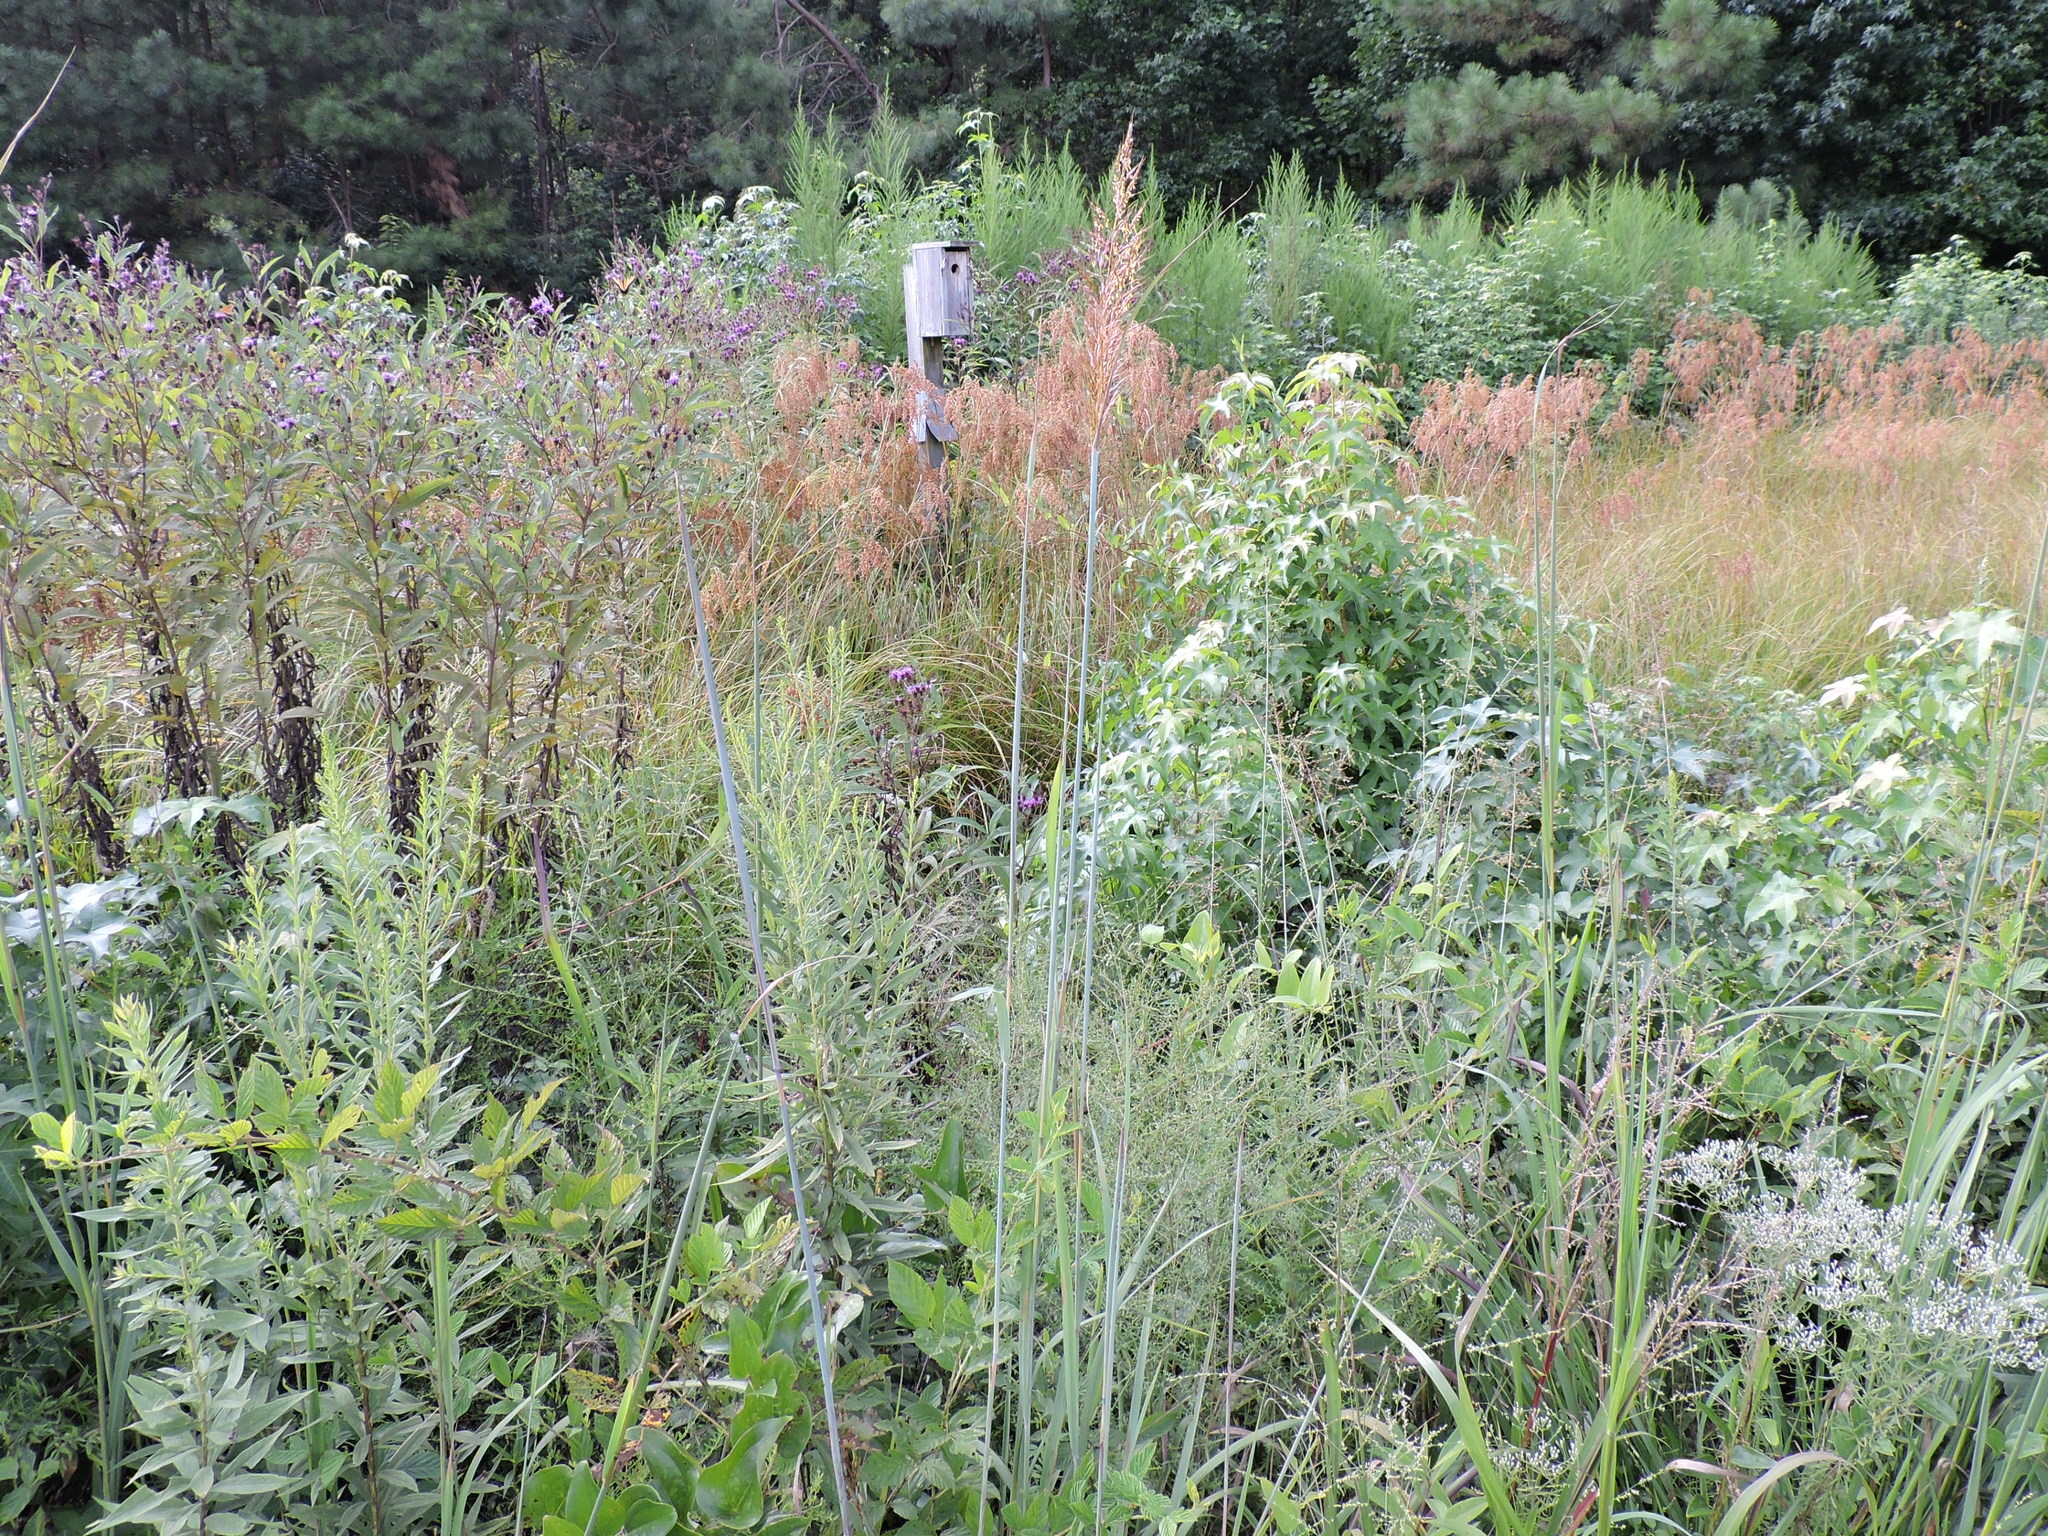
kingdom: Plantae
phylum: Tracheophyta
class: Liliopsida
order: Poales
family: Poaceae
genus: Sorghastrum
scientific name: Sorghastrum nutans
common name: Indian grass
